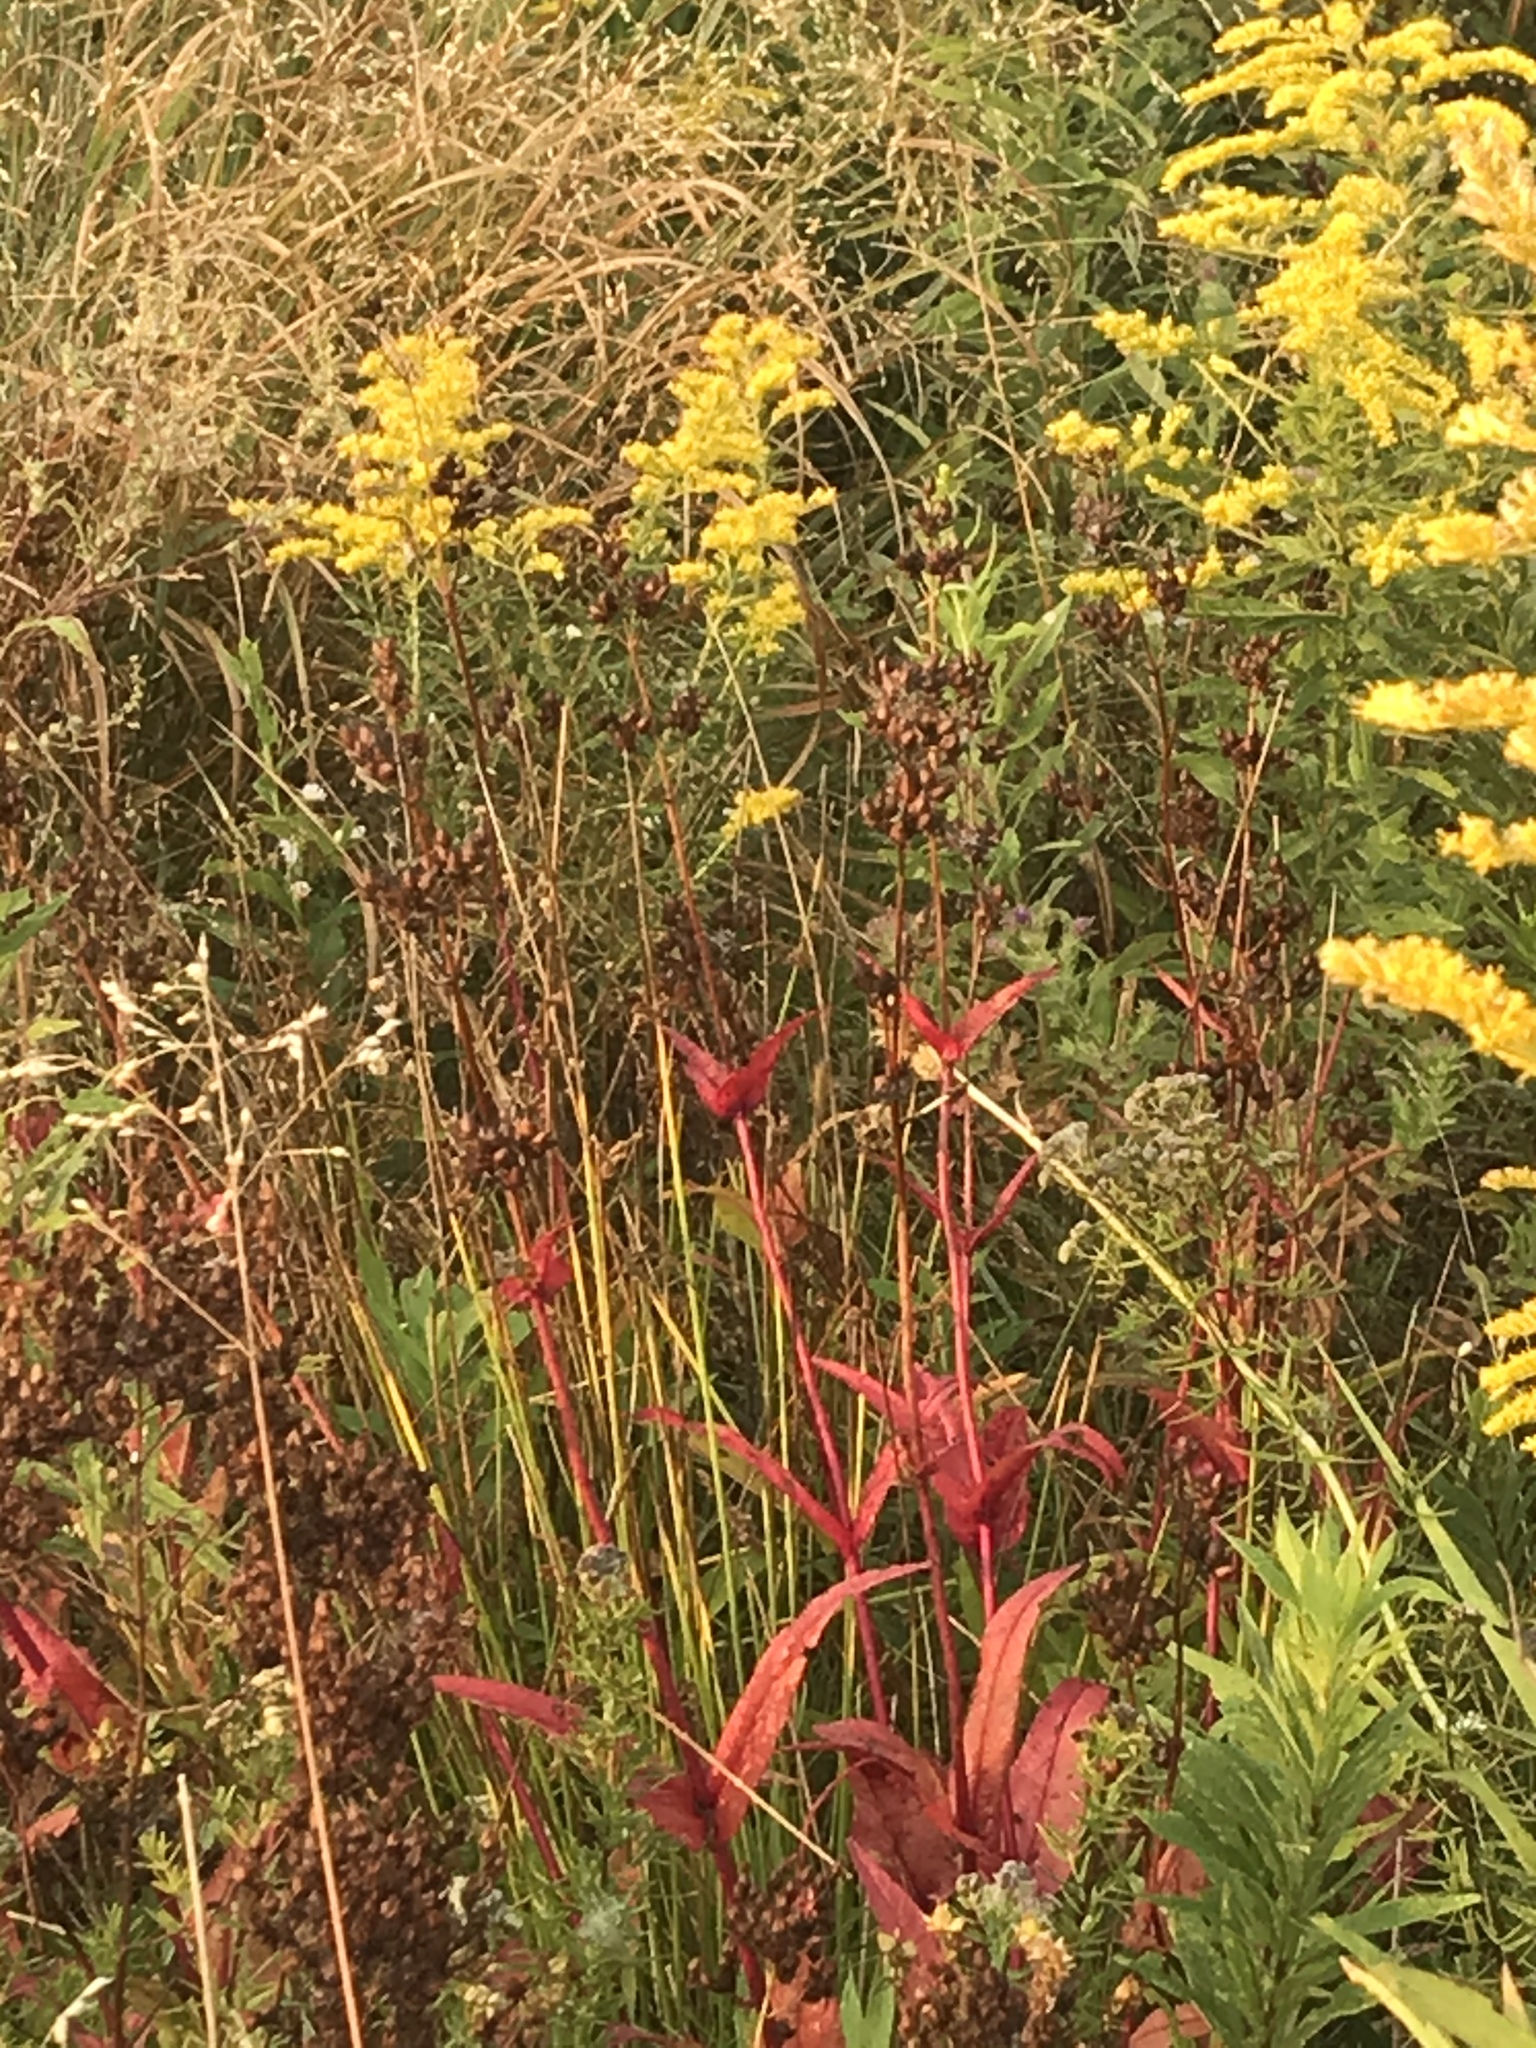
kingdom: Plantae
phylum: Tracheophyta
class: Magnoliopsida
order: Lamiales
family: Plantaginaceae
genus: Penstemon
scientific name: Penstemon digitalis
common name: Foxglove beardtongue
